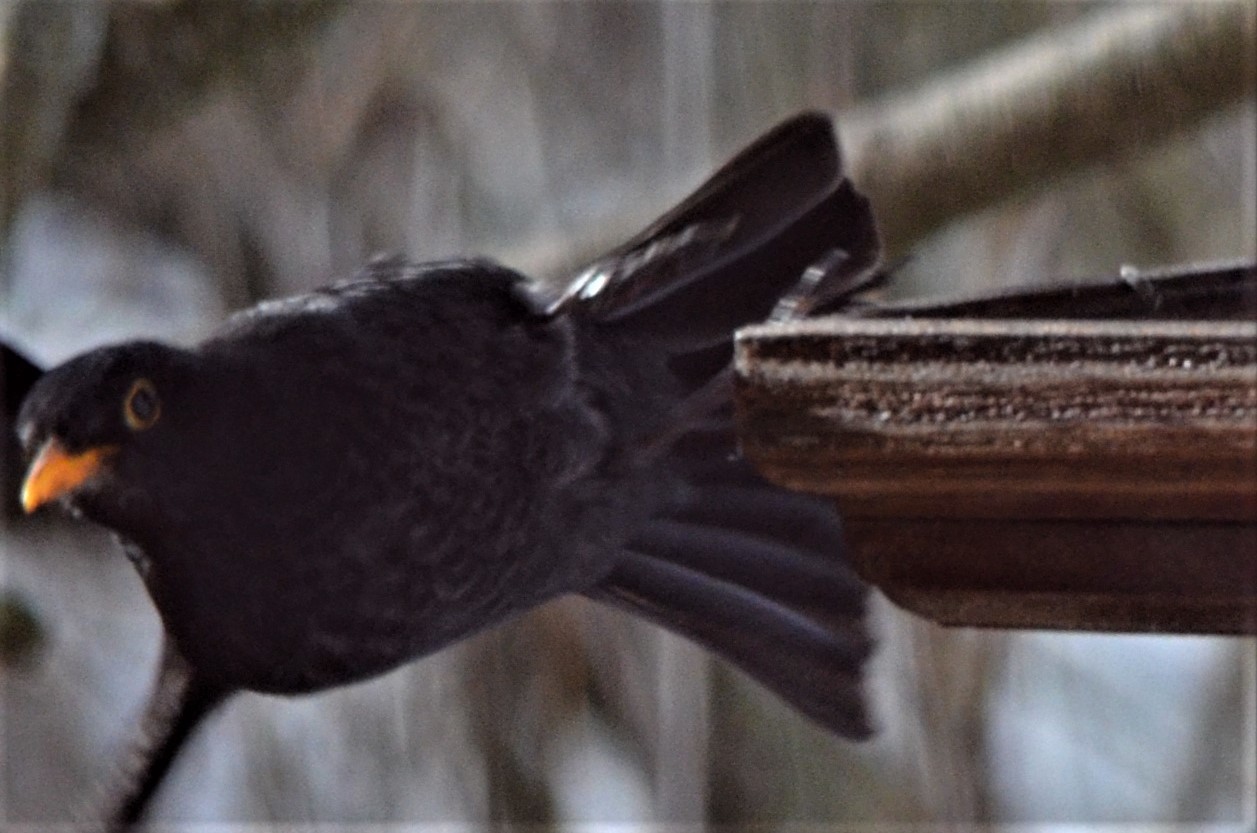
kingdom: Animalia
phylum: Chordata
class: Aves
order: Passeriformes
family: Turdidae
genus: Turdus
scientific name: Turdus merula
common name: Common blackbird
